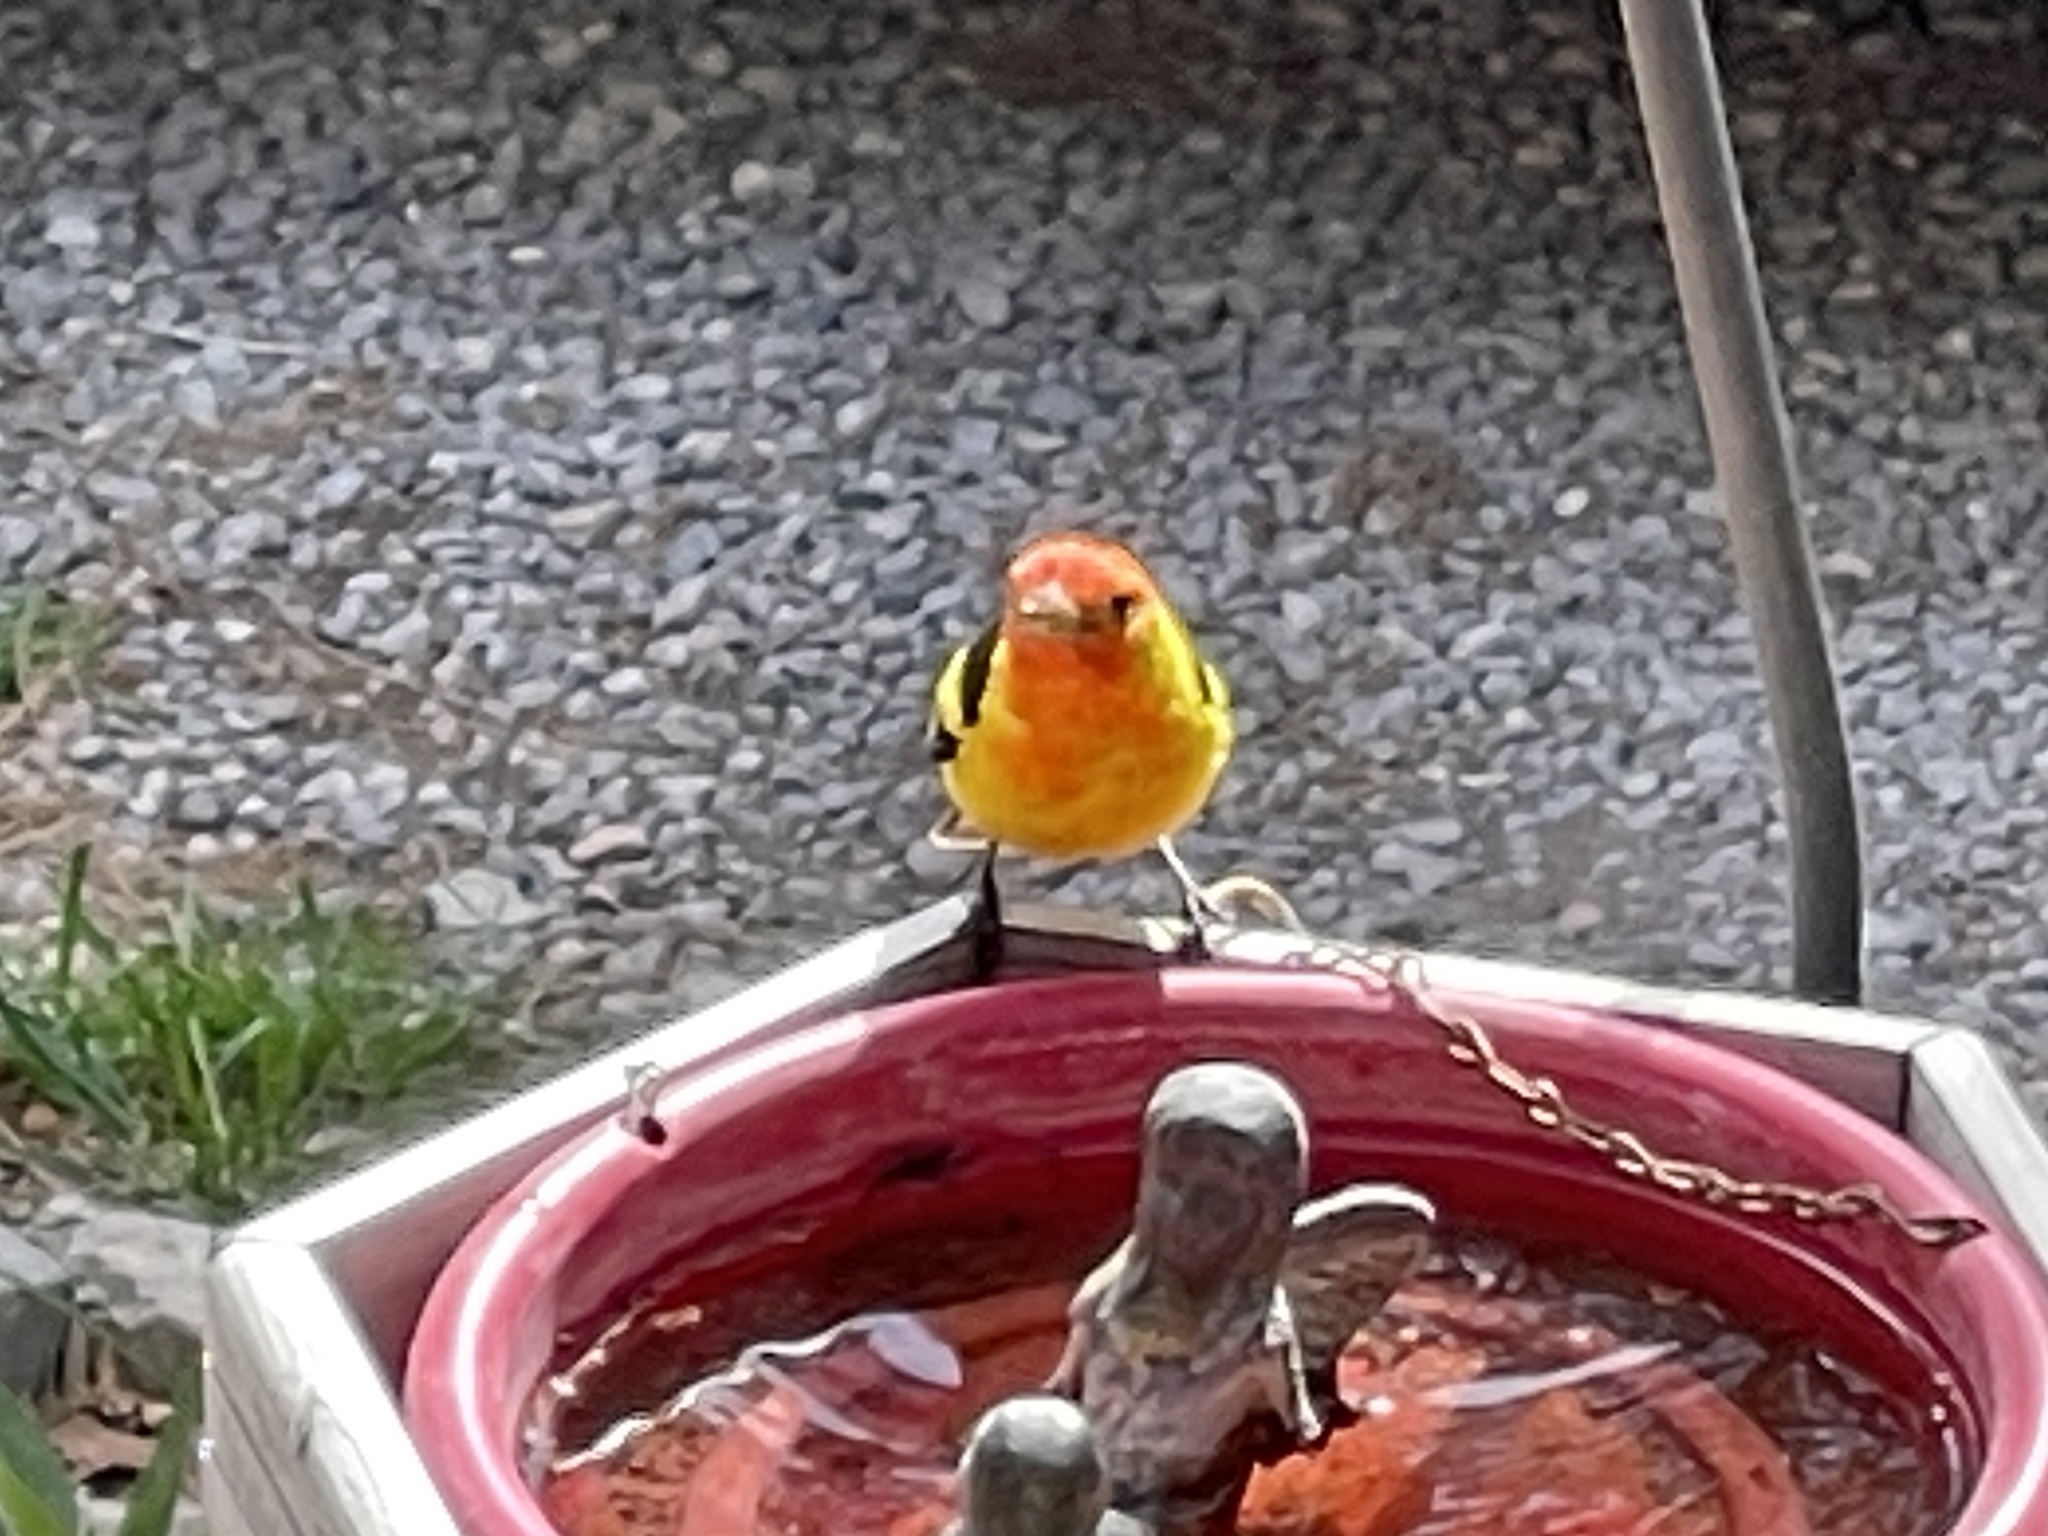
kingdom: Animalia
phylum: Chordata
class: Aves
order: Passeriformes
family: Cardinalidae
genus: Piranga
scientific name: Piranga ludoviciana
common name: Western tanager
